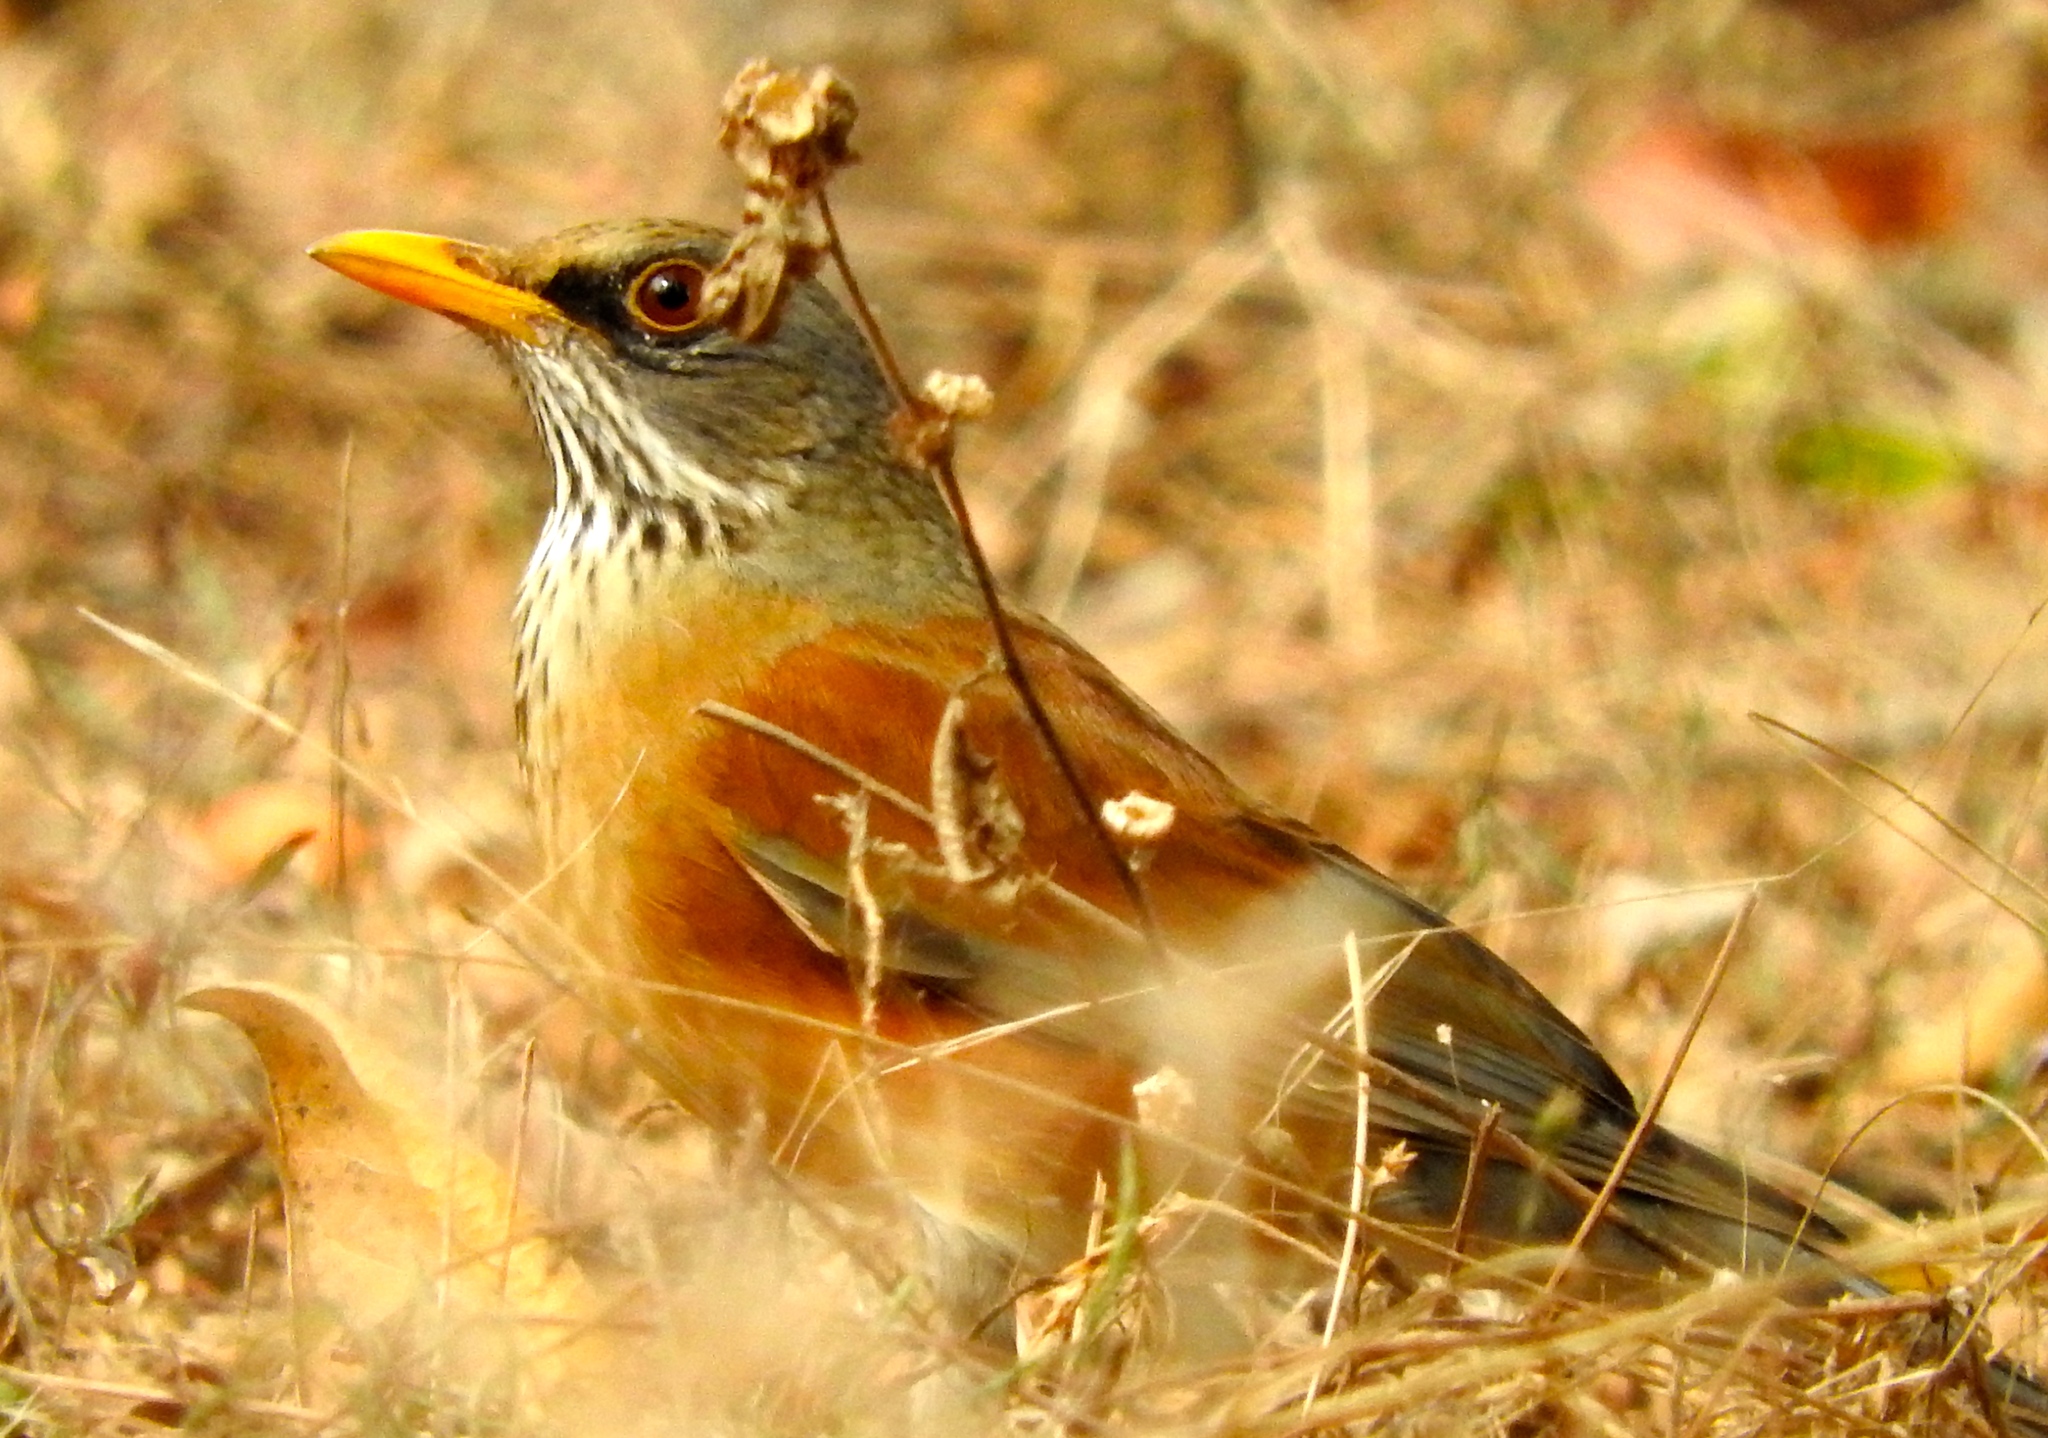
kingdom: Animalia
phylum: Chordata
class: Aves
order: Passeriformes
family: Turdidae
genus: Turdus
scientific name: Turdus rufopalliatus
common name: Rufous-backed robin
